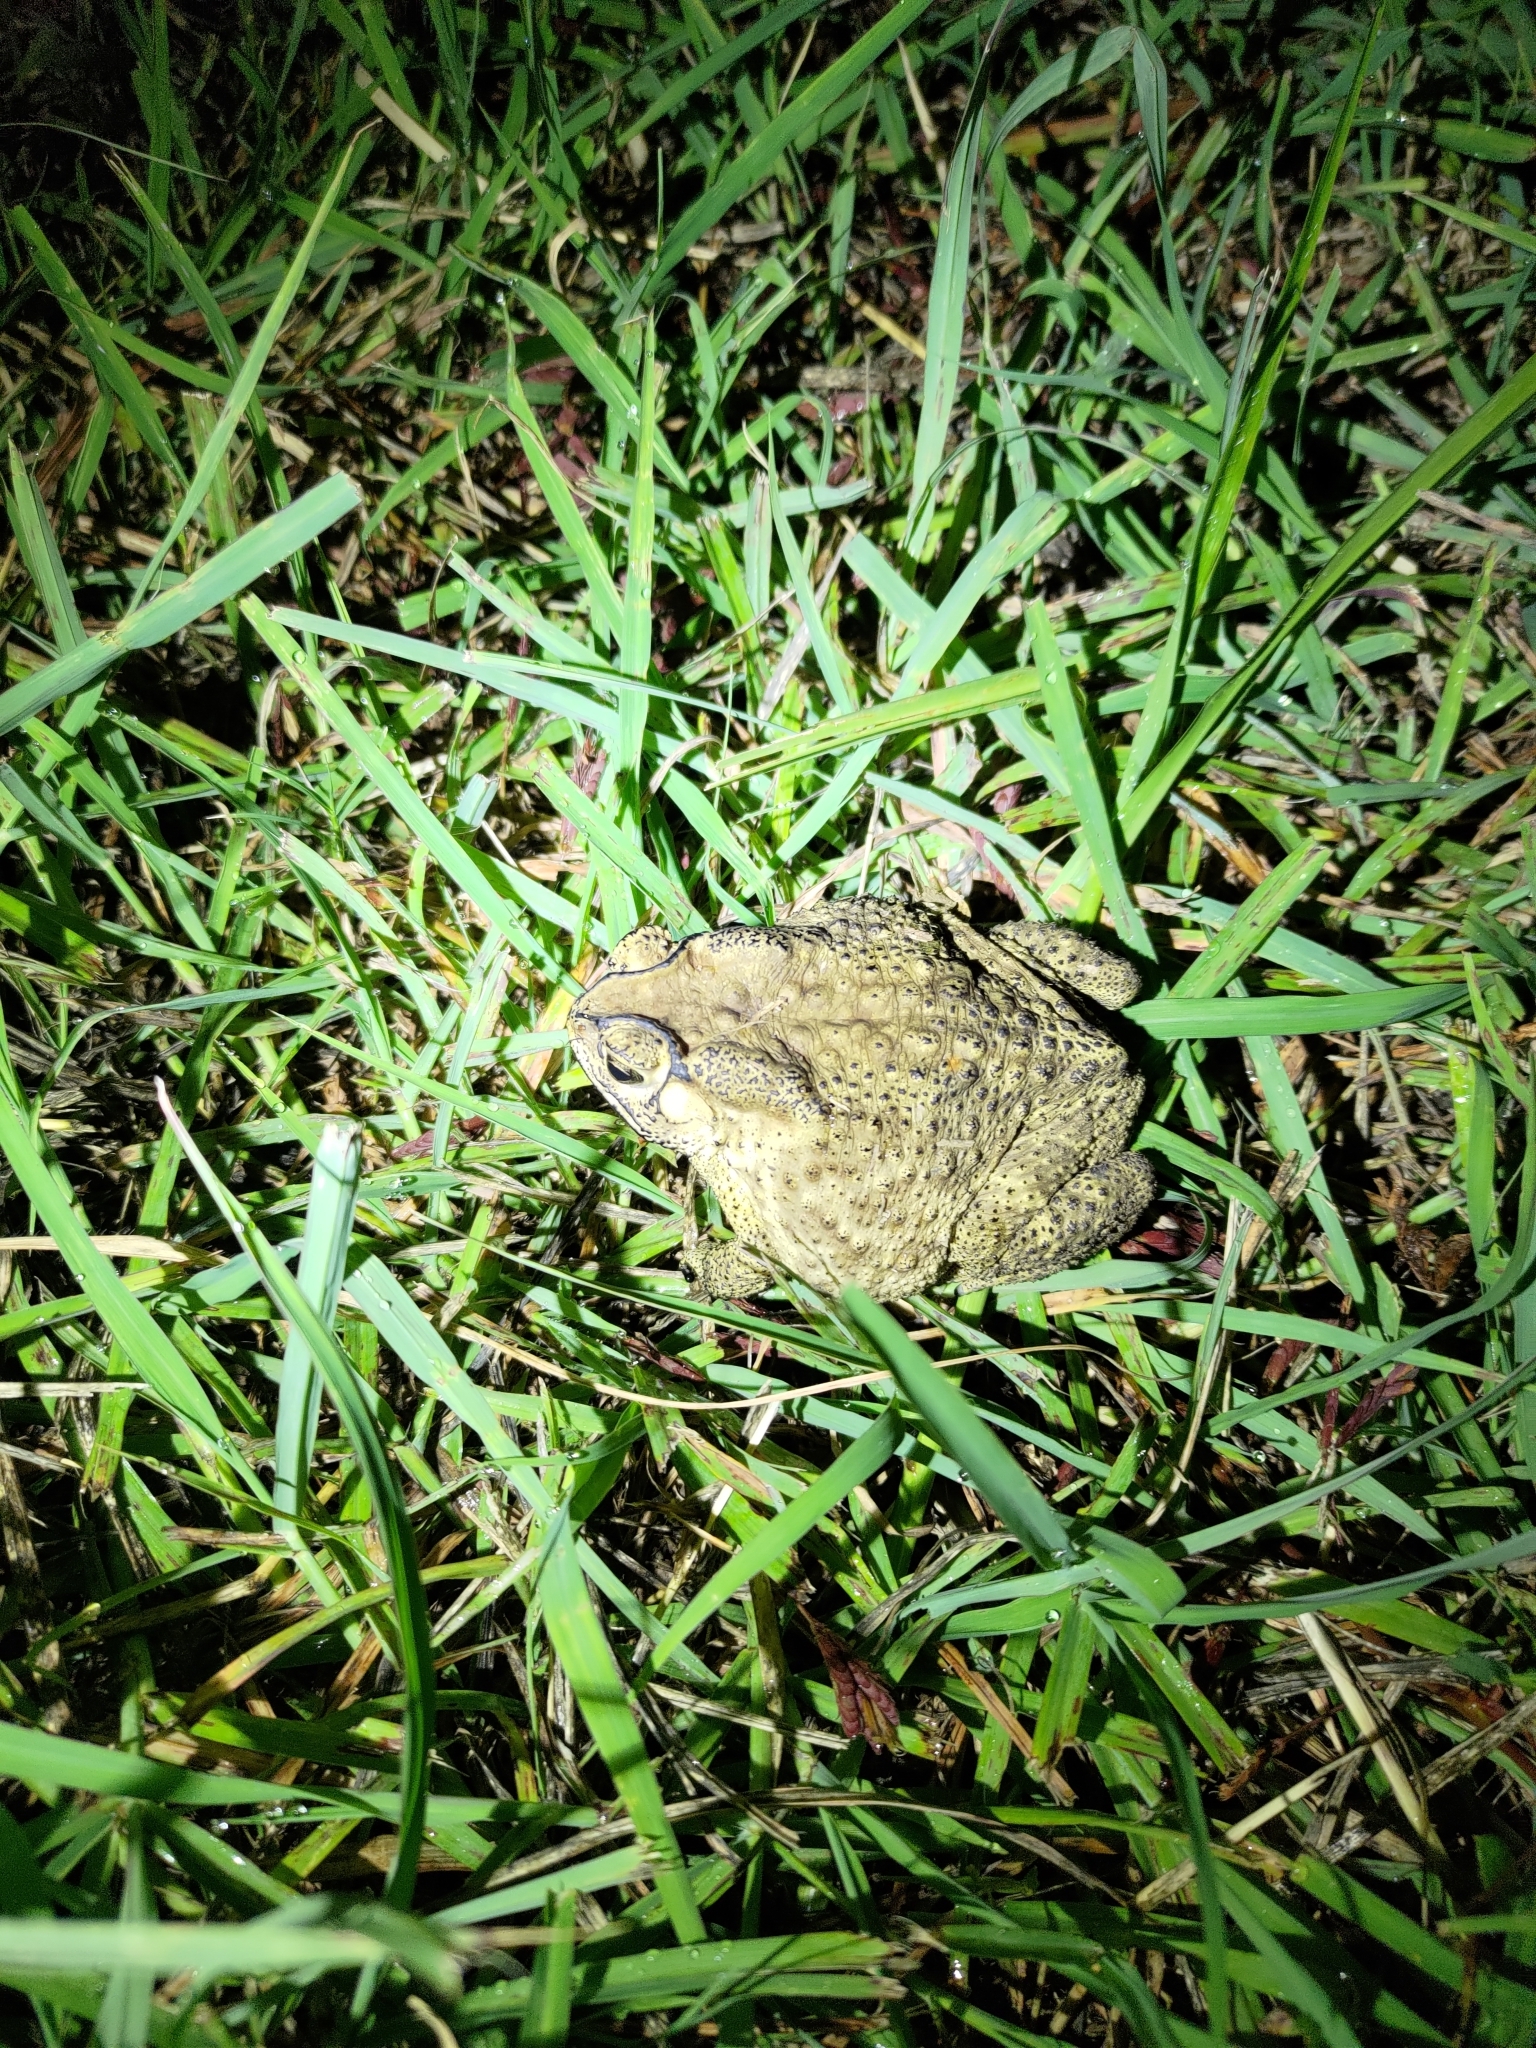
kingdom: Animalia
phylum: Chordata
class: Amphibia
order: Anura
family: Bufonidae
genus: Duttaphrynus
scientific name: Duttaphrynus melanostictus
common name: Common sunda toad
